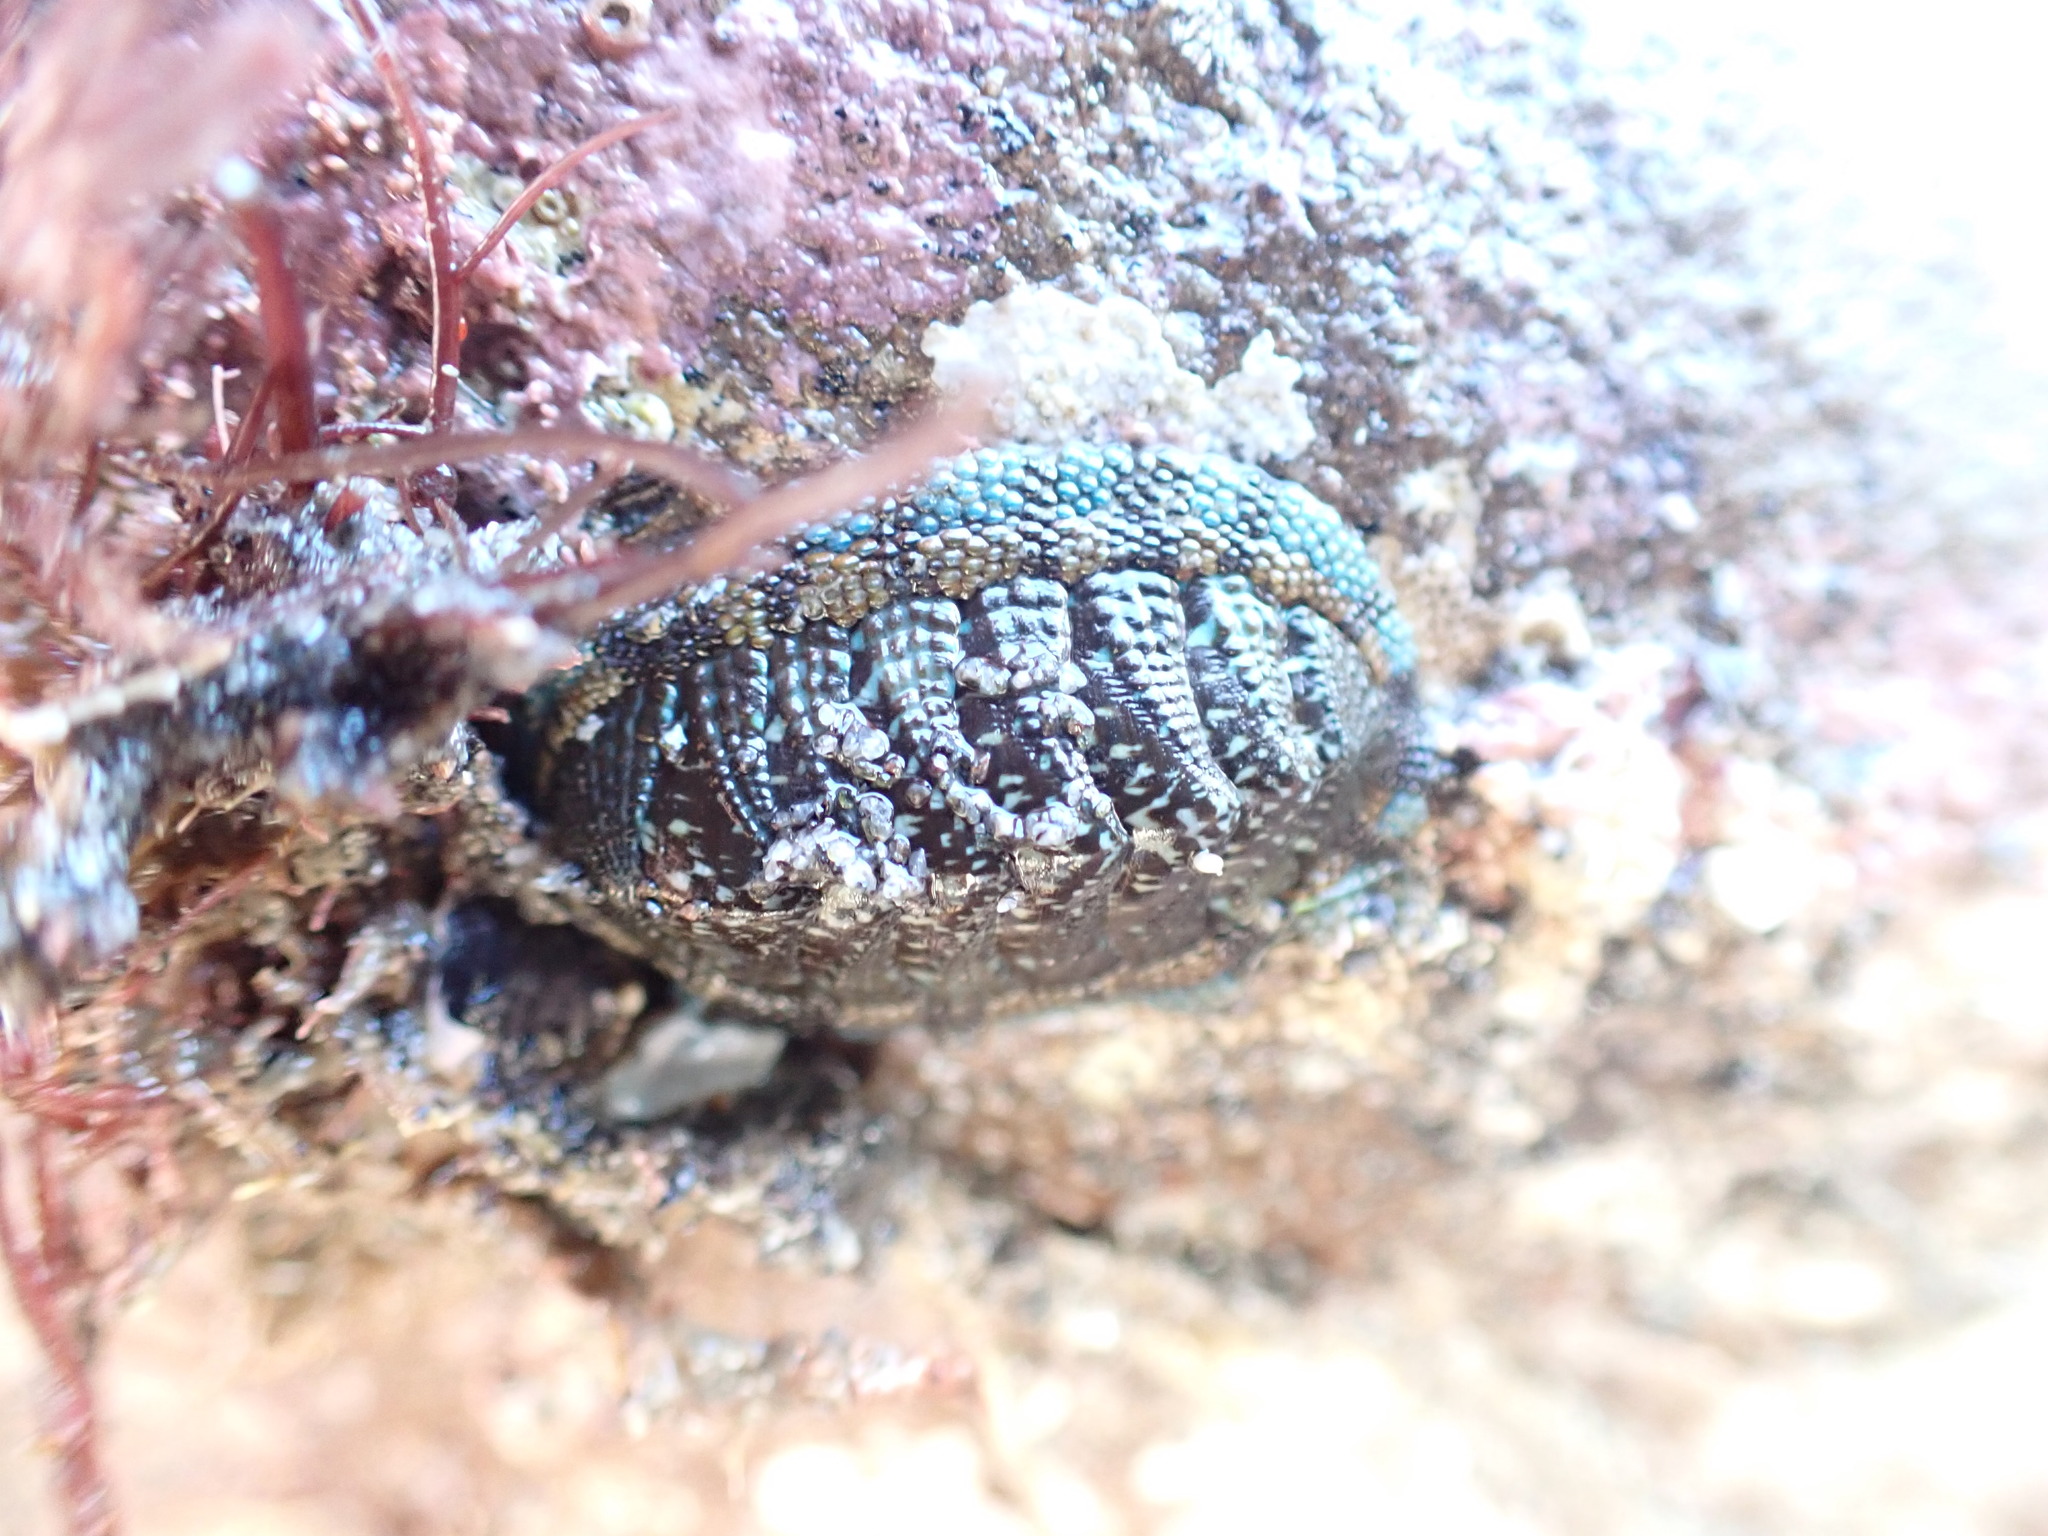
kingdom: Animalia
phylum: Mollusca
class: Polyplacophora
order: Chitonida
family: Chitonidae
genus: Sypharochiton
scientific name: Sypharochiton sinclairi
